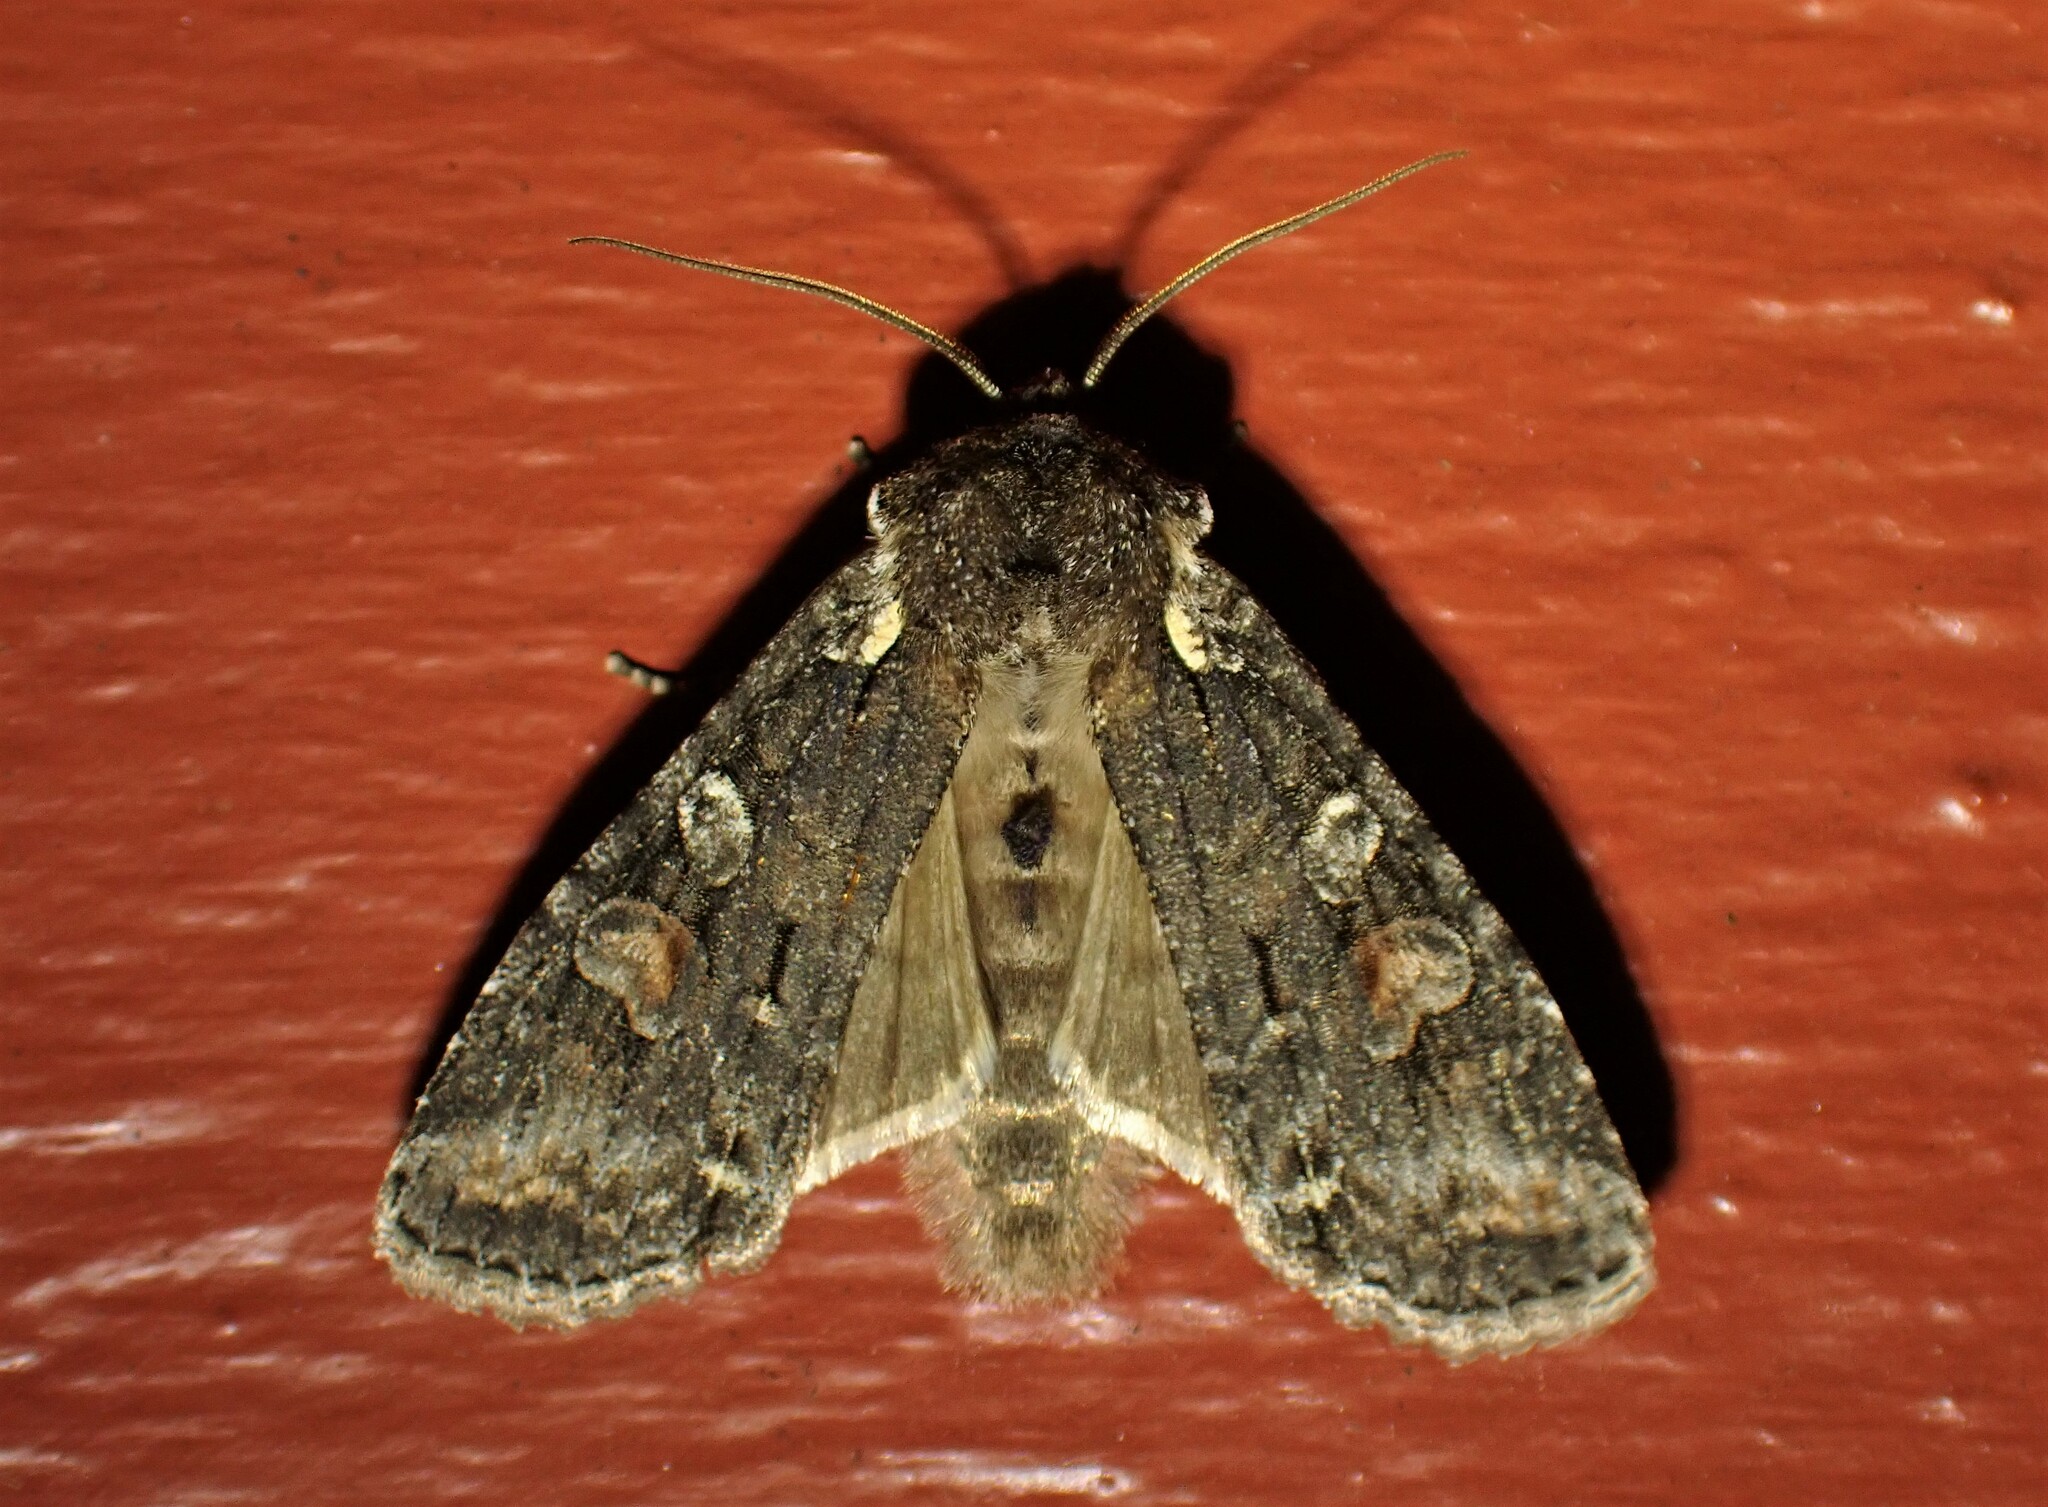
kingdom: Animalia
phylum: Arthropoda
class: Insecta
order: Lepidoptera
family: Noctuidae
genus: Lithophane
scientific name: Lithophane pexata
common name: Plush-naped pinion moth
